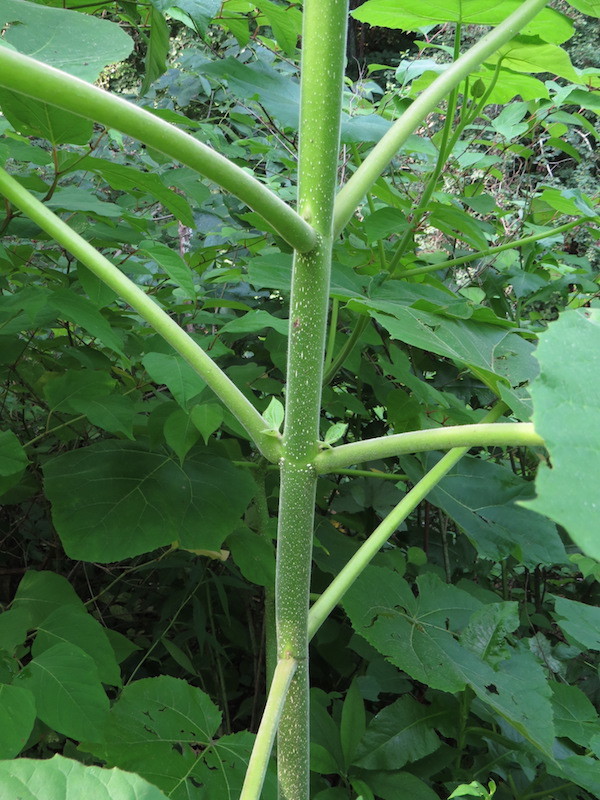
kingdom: Plantae
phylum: Tracheophyta
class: Magnoliopsida
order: Lamiales
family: Paulowniaceae
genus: Paulownia
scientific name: Paulownia tomentosa
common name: Foxglove-tree
